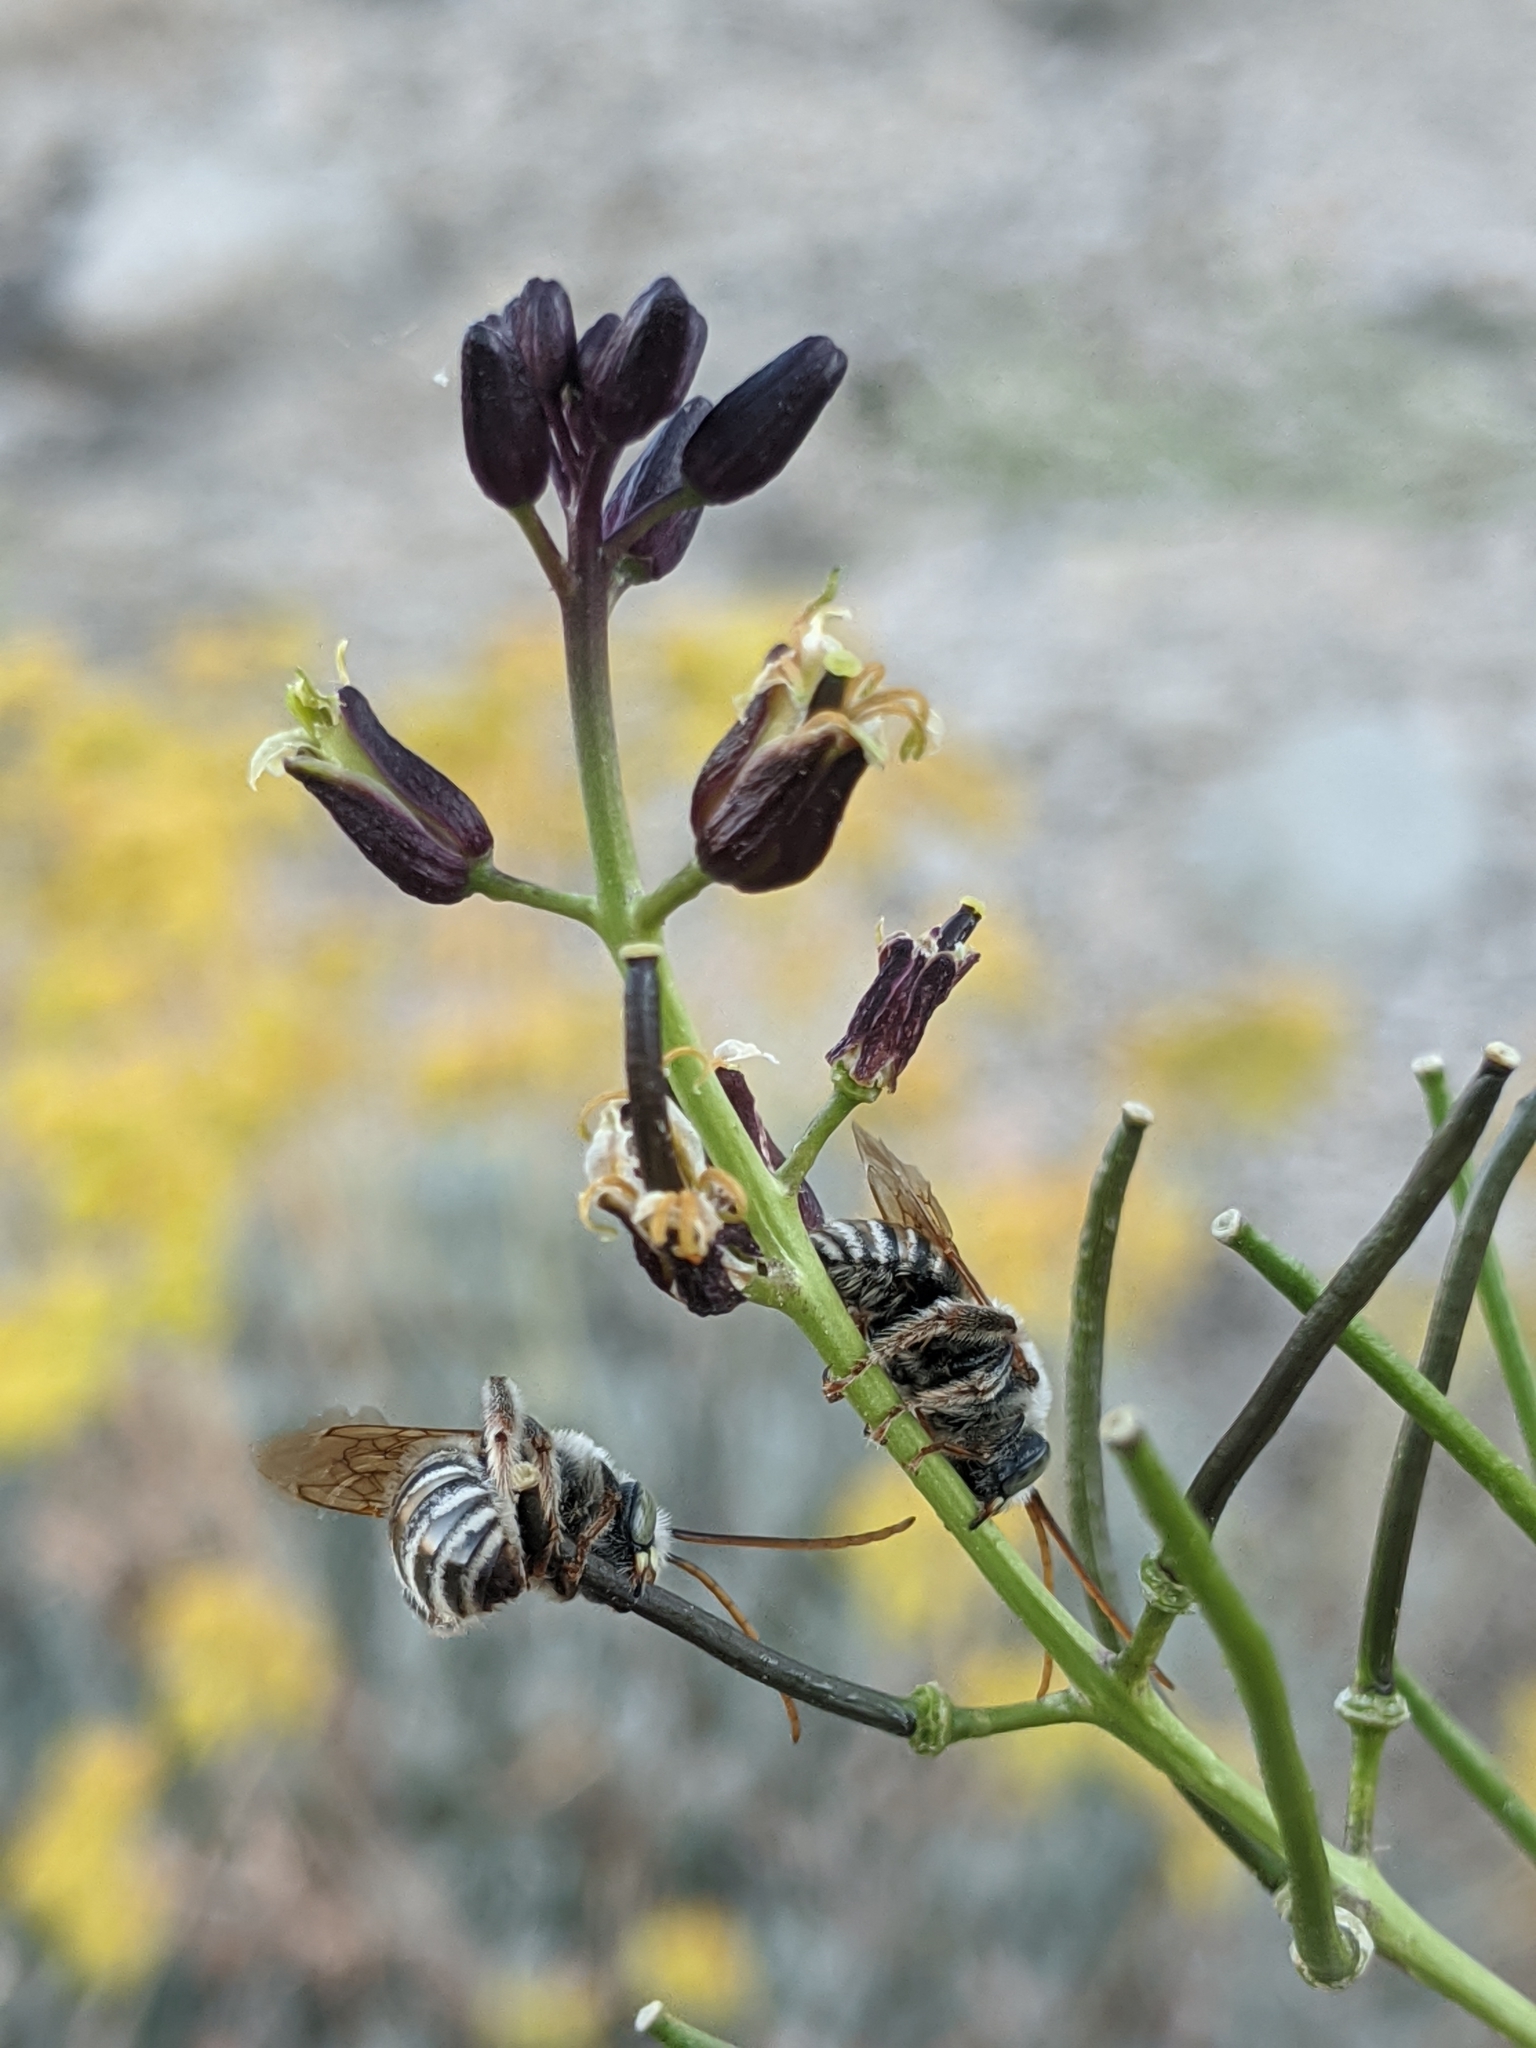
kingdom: Plantae
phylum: Tracheophyta
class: Magnoliopsida
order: Brassicales
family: Brassicaceae
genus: Streptanthus
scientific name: Streptanthus pilosus
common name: Chocolate drops
